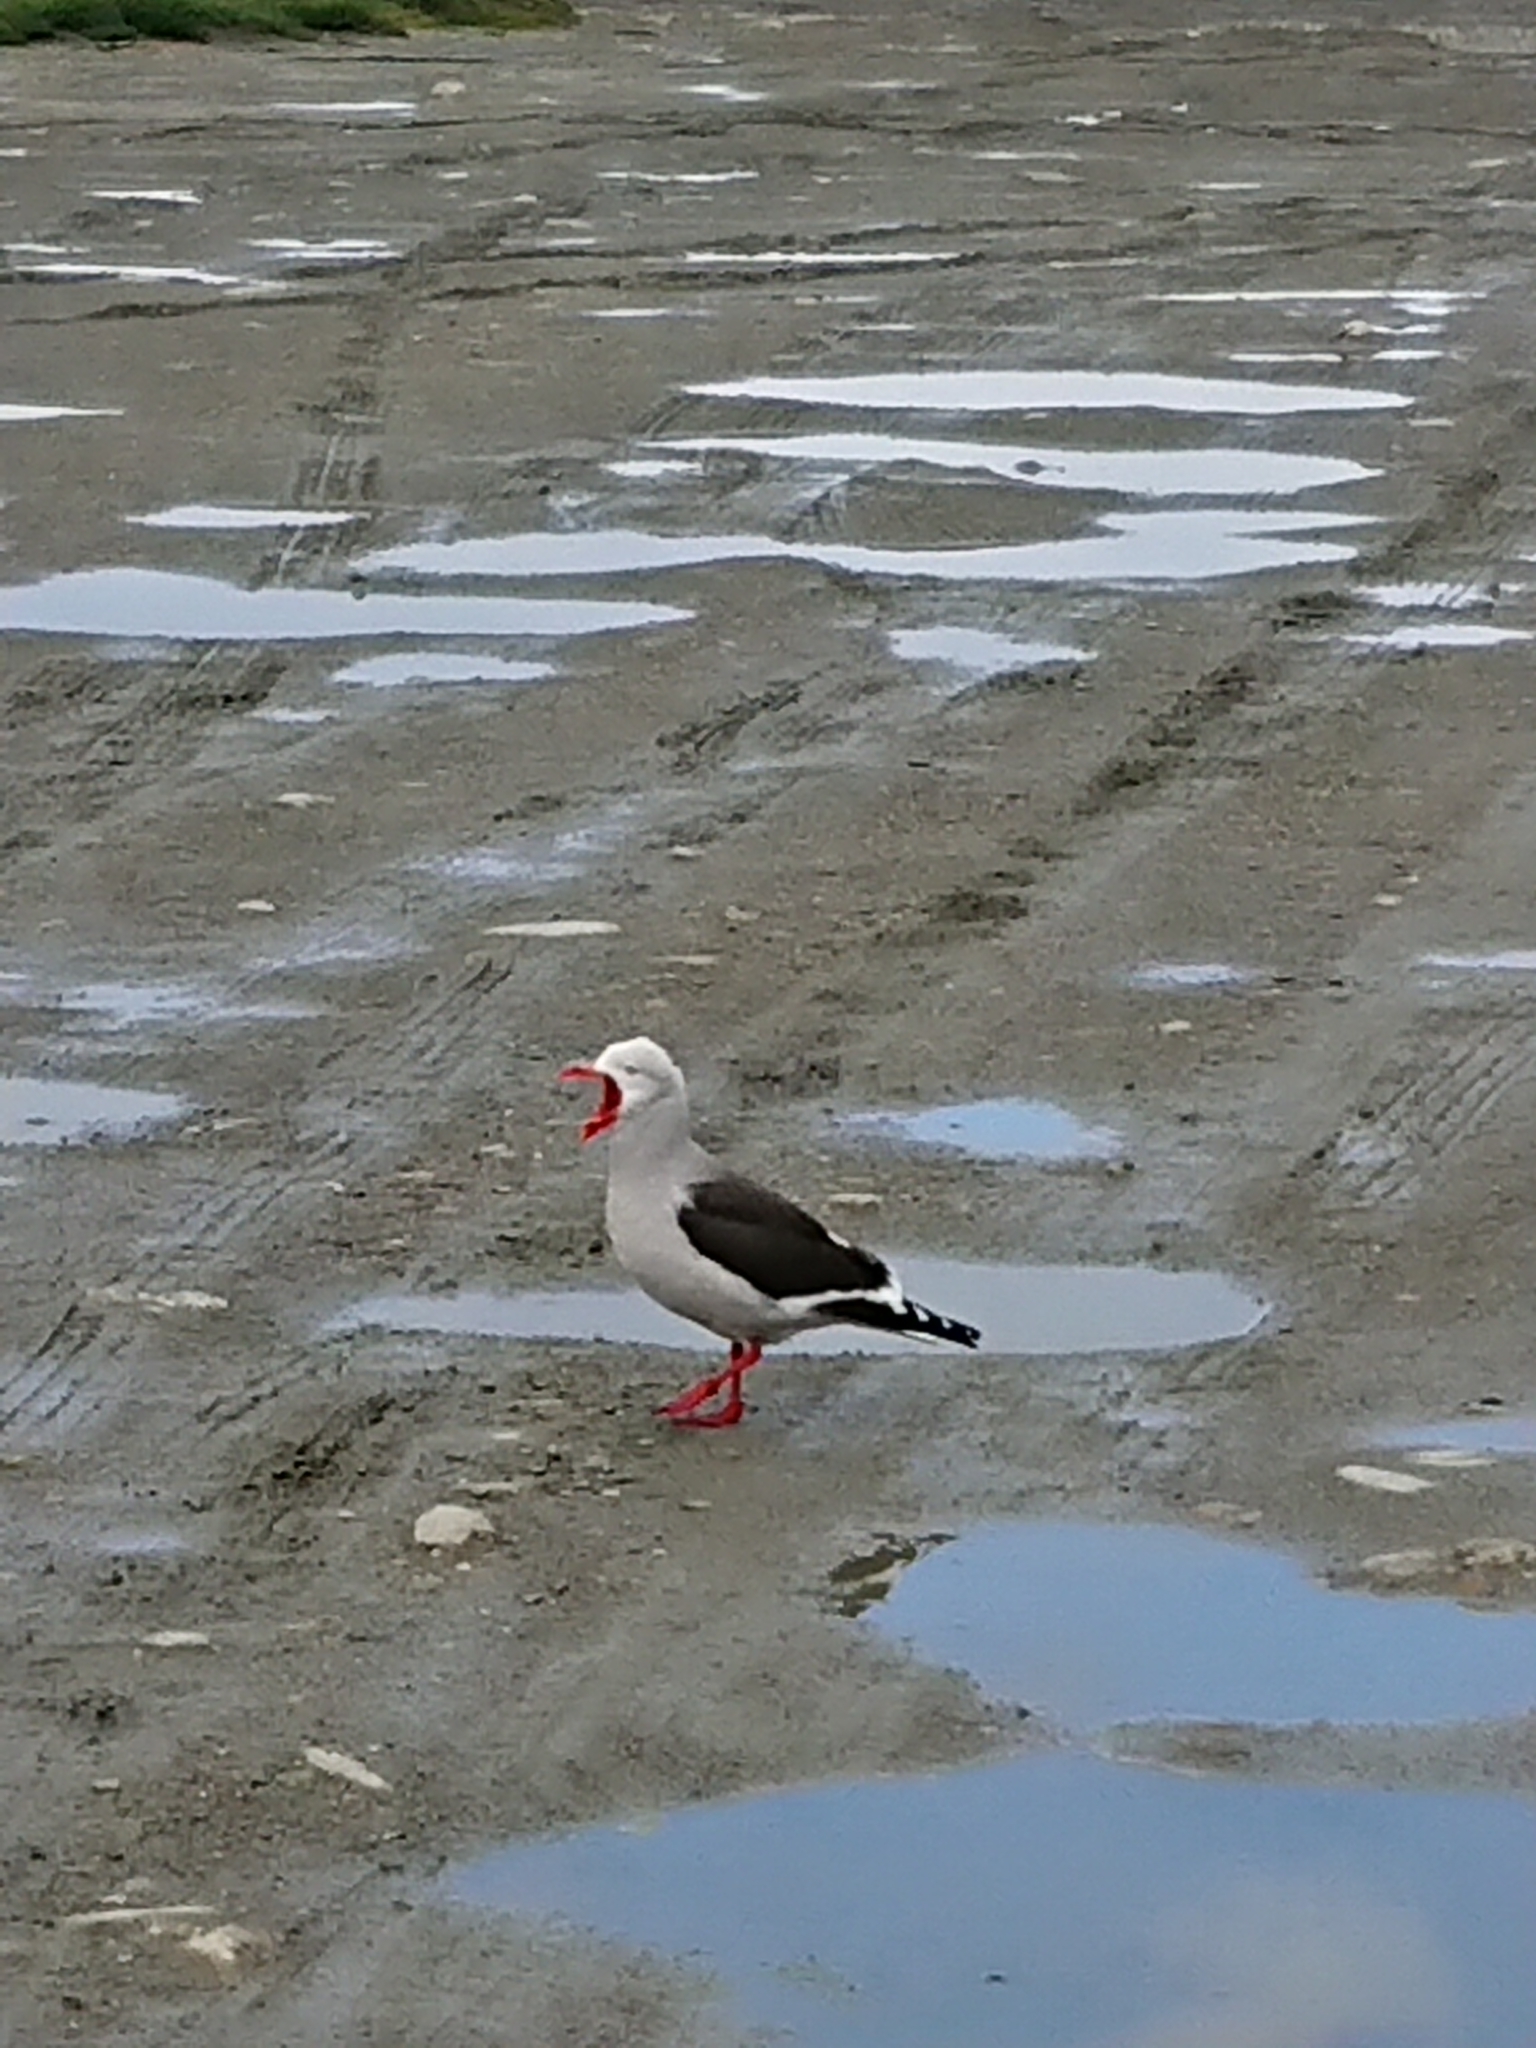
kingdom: Animalia
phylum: Chordata
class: Aves
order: Charadriiformes
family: Laridae
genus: Leucophaeus
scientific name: Leucophaeus scoresbii
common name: Dolphin gull
